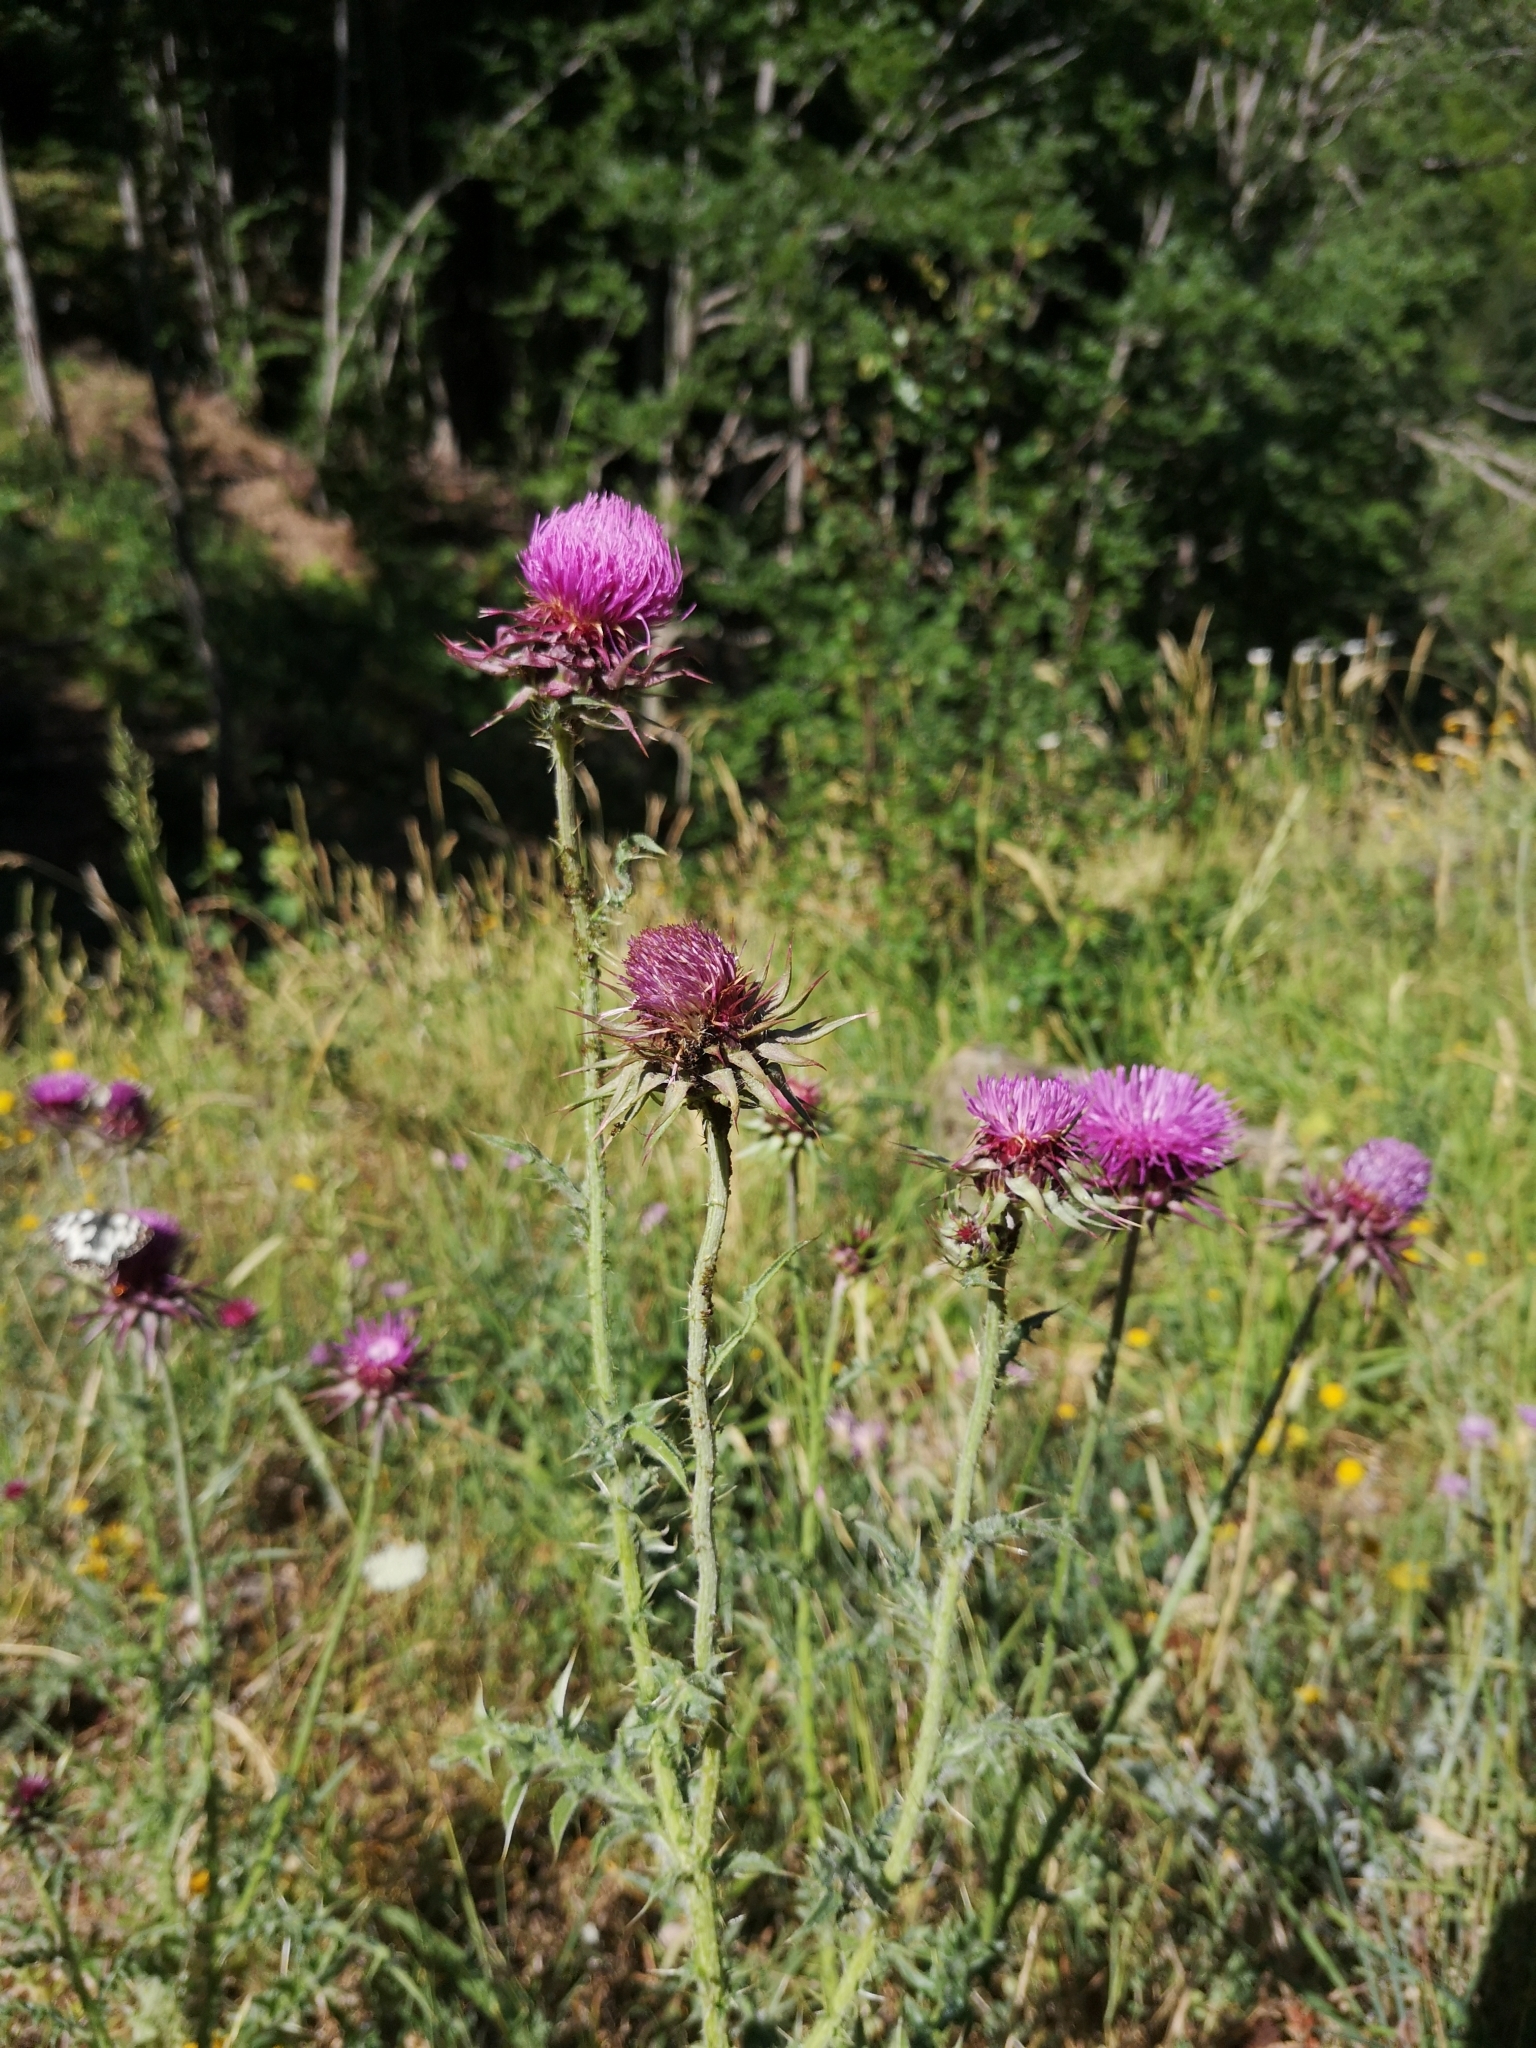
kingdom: Plantae
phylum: Tracheophyta
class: Magnoliopsida
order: Asterales
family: Asteraceae
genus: Carduus
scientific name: Carduus nutans
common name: Musk thistle
